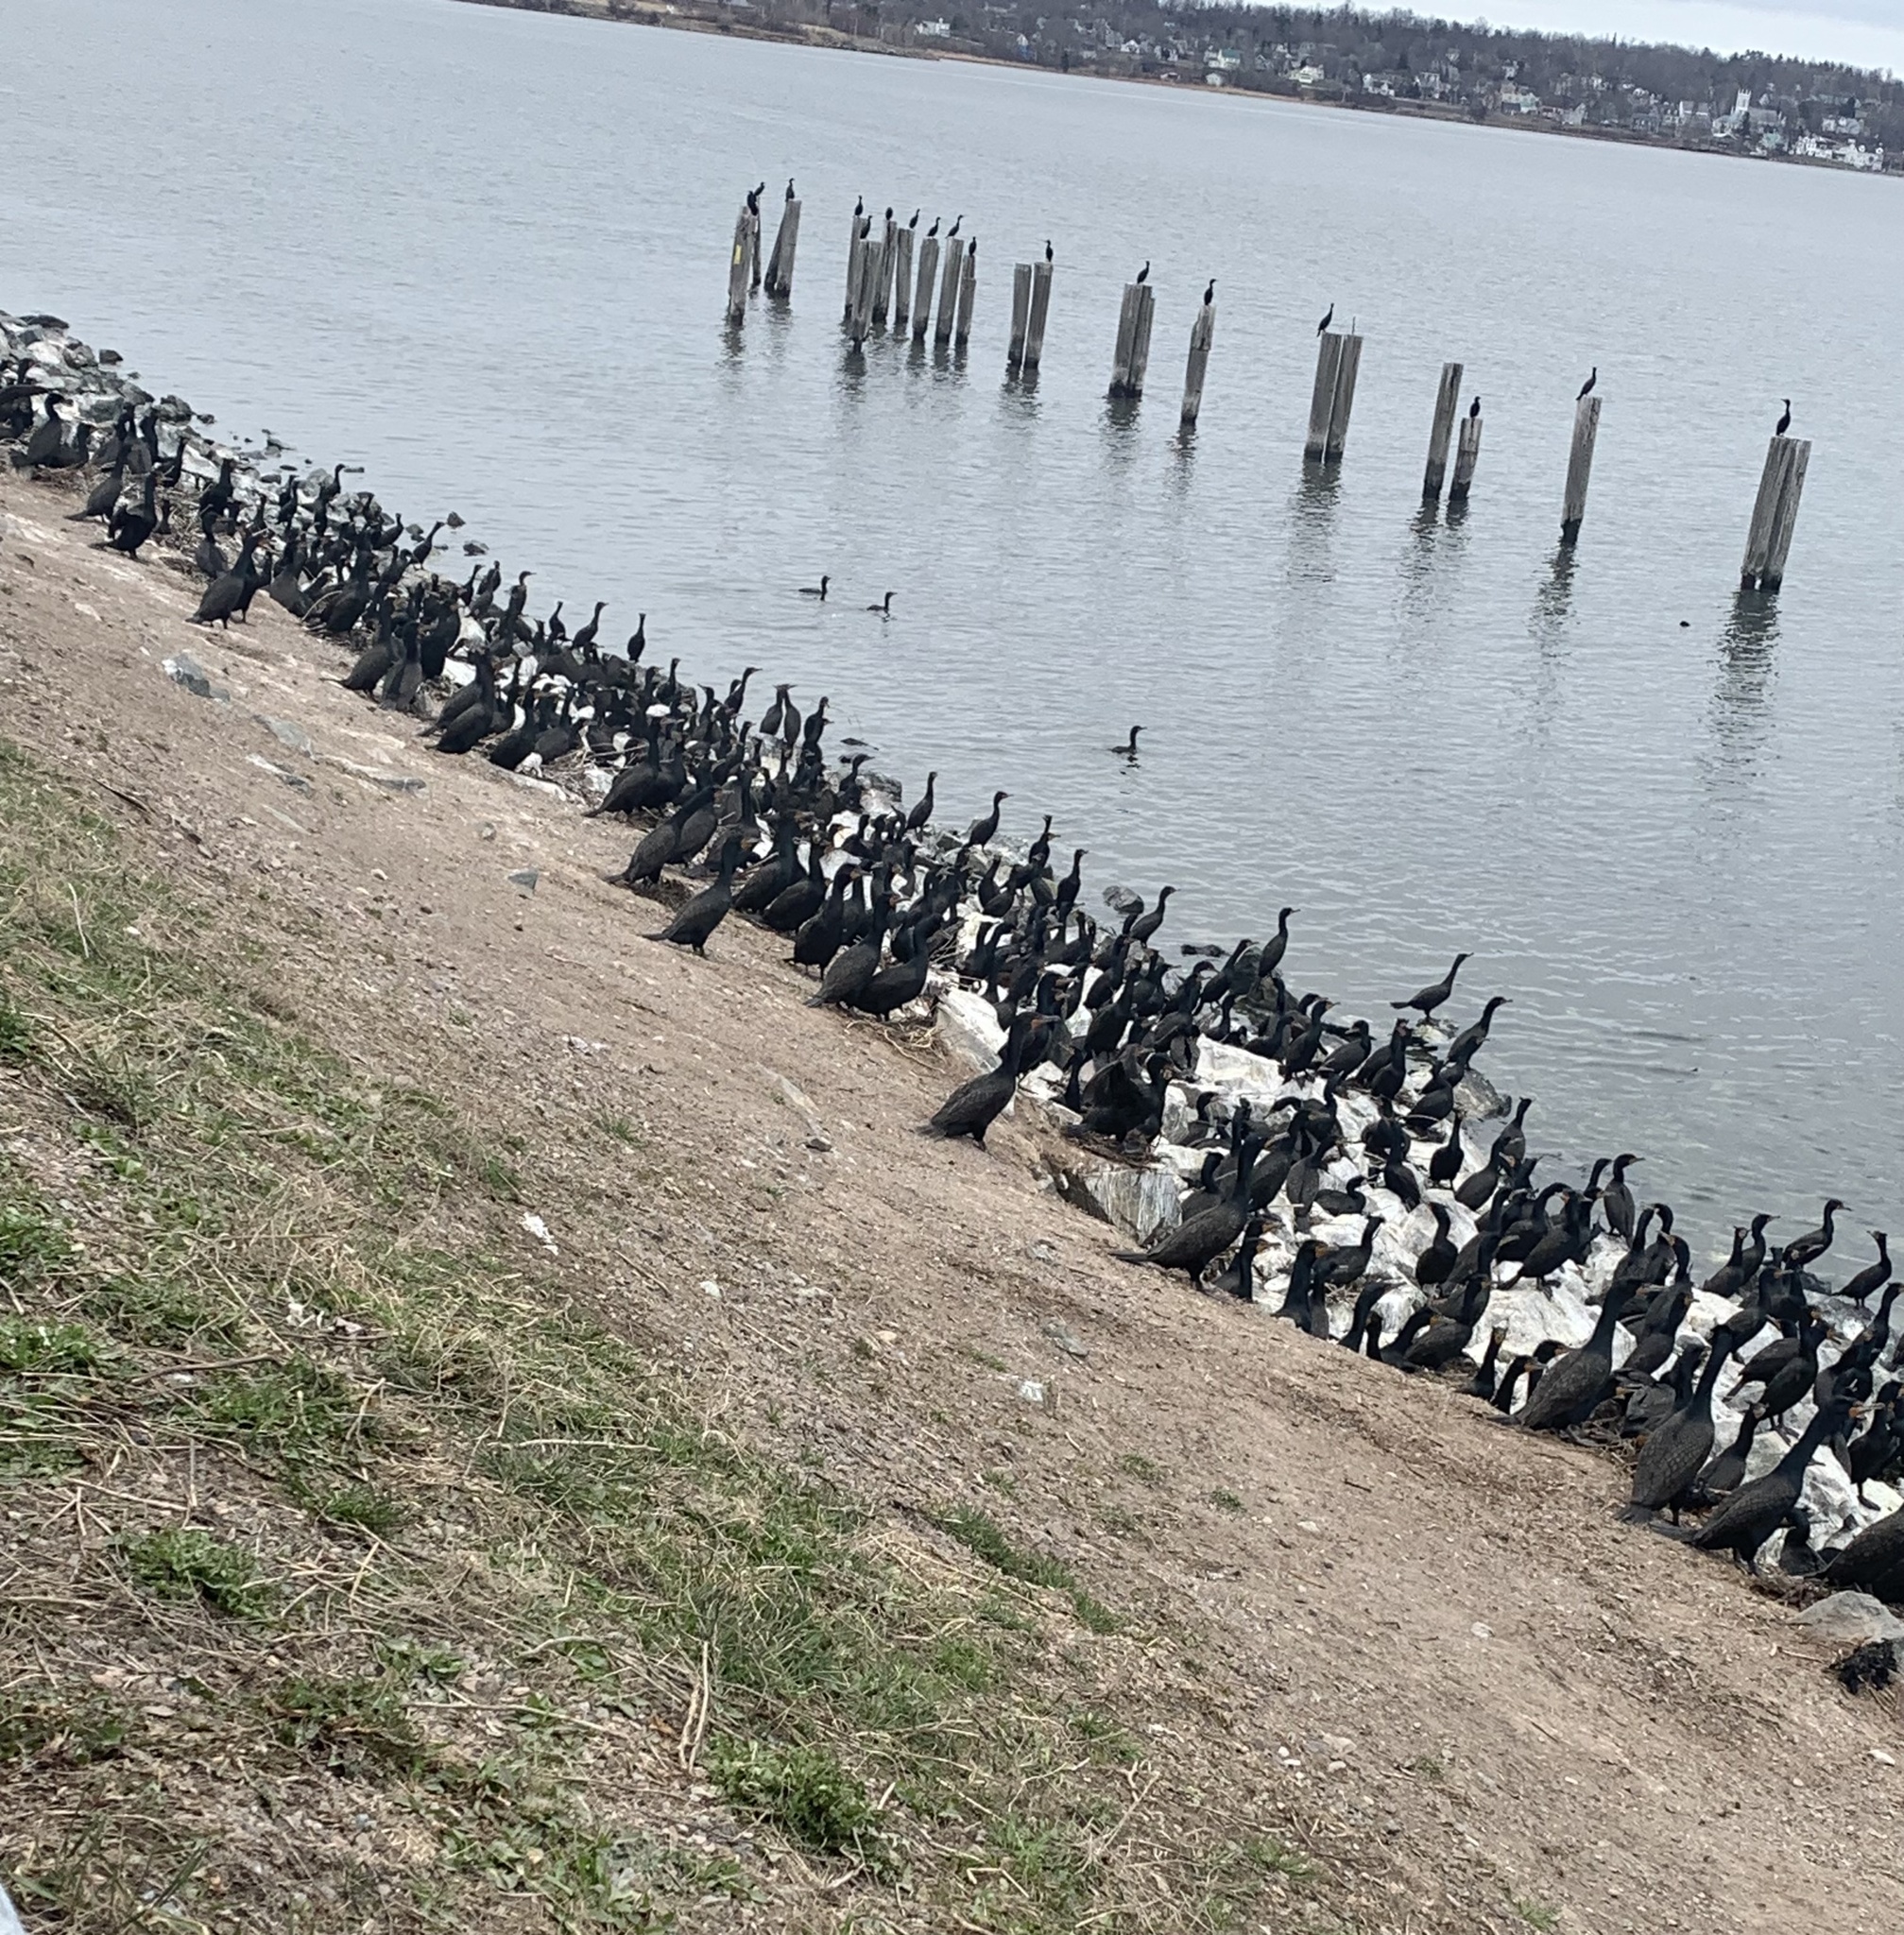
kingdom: Animalia
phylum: Chordata
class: Aves
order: Suliformes
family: Phalacrocoracidae
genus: Phalacrocorax
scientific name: Phalacrocorax auritus
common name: Double-crested cormorant
